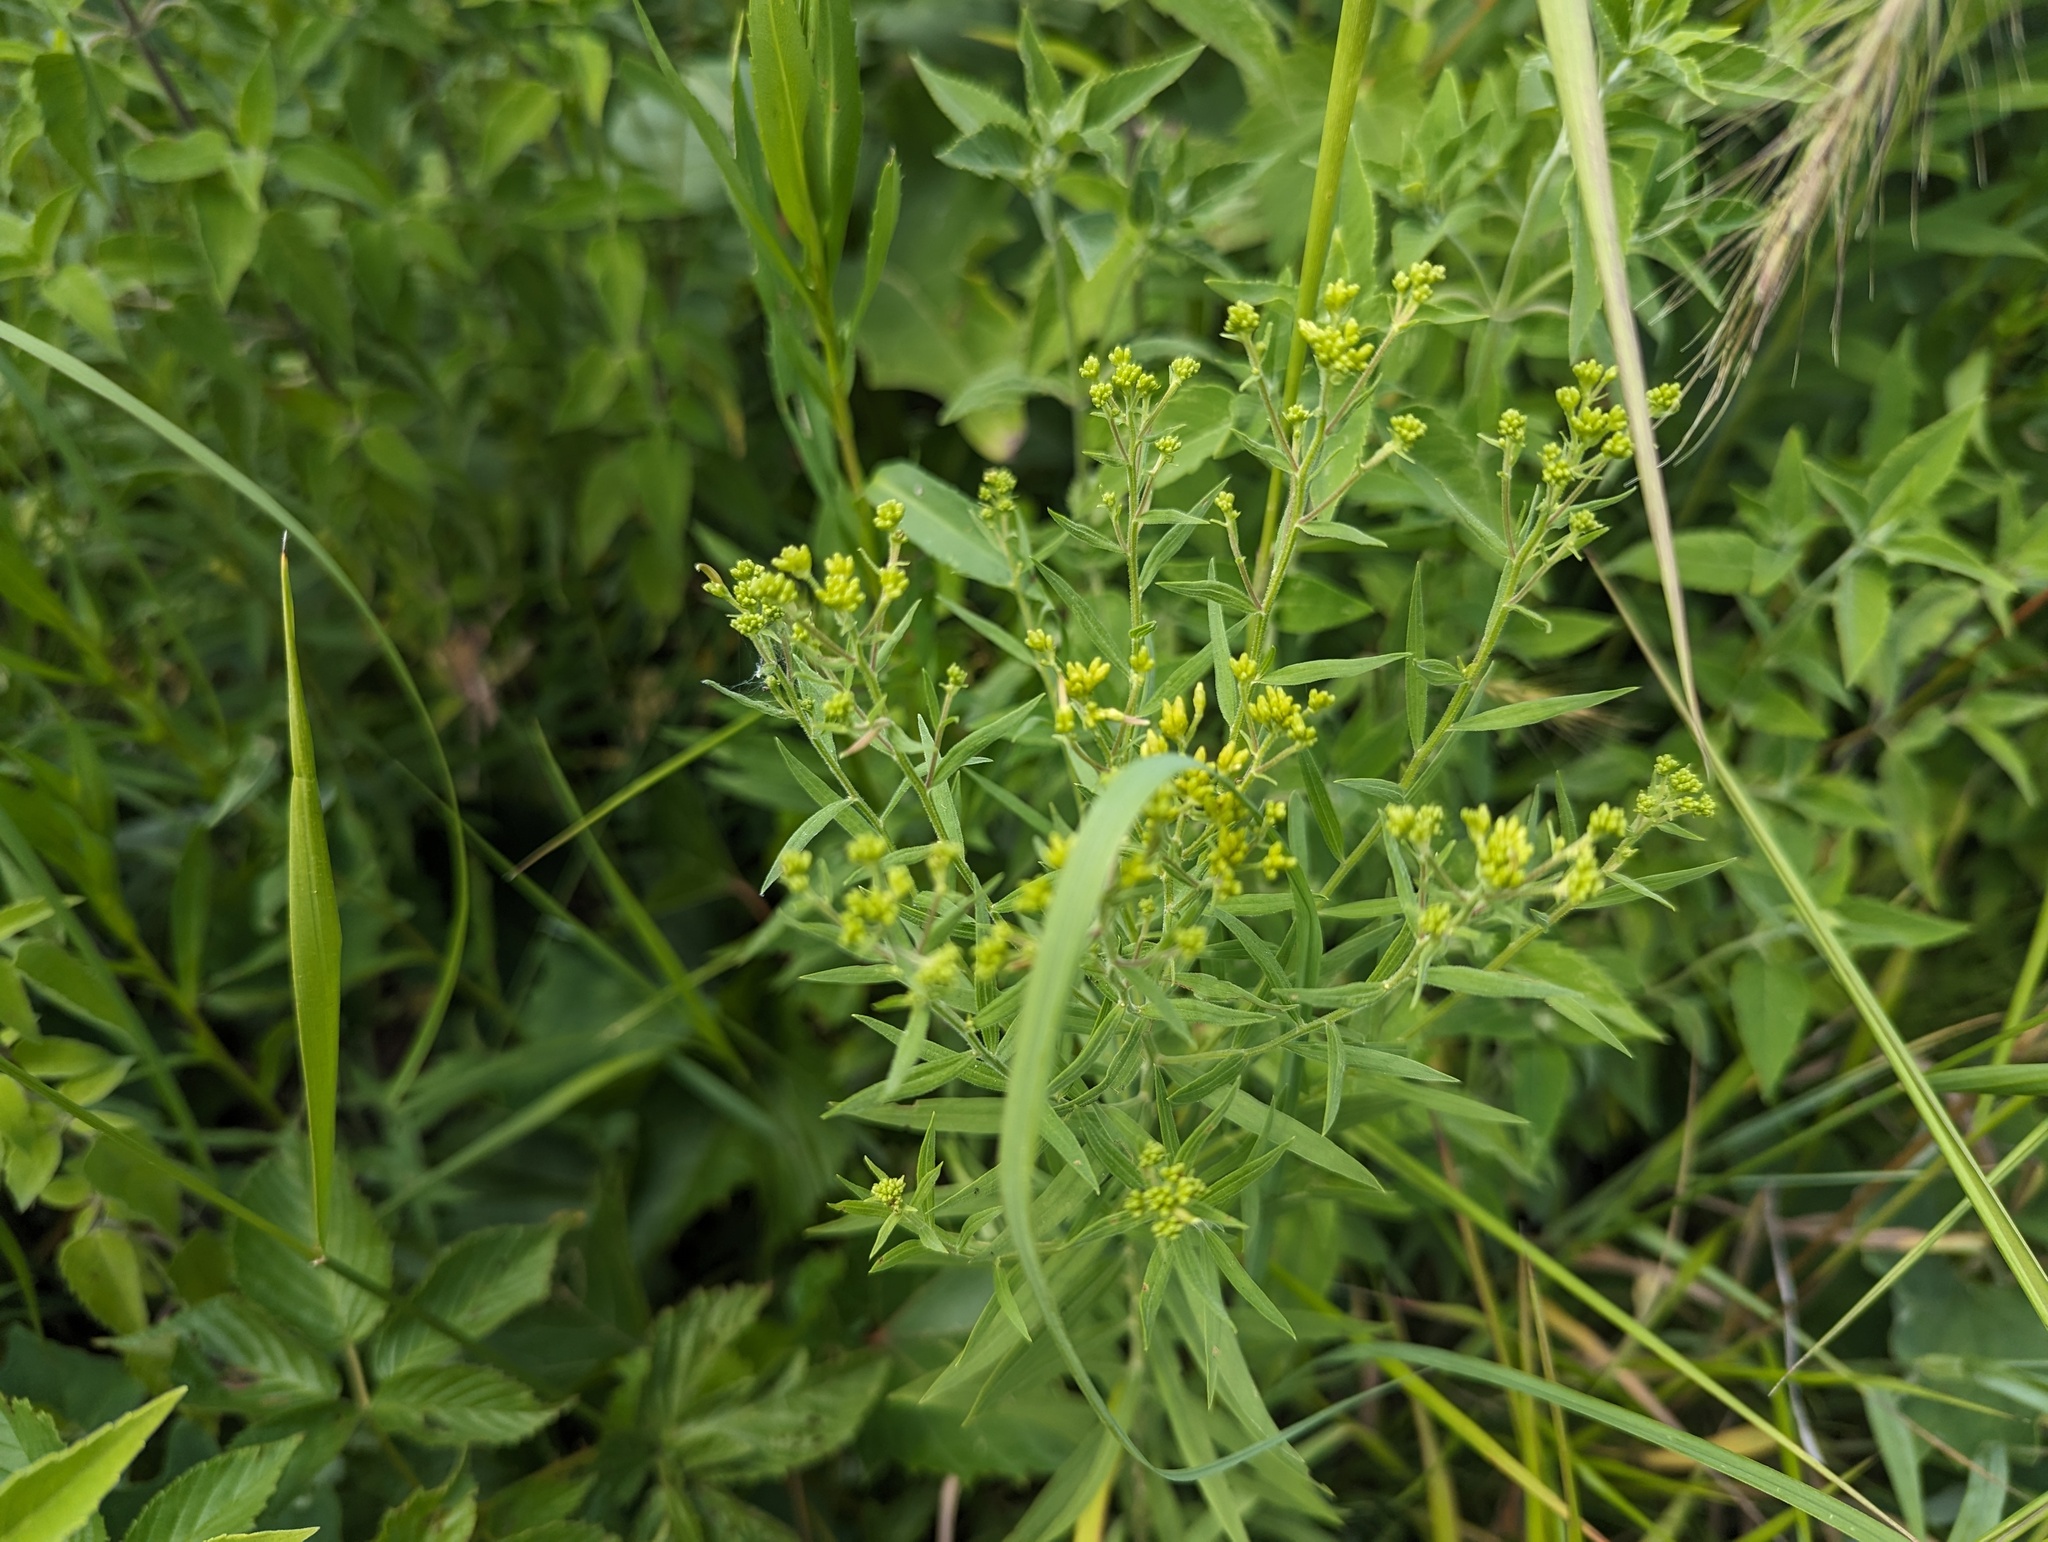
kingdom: Plantae
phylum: Tracheophyta
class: Magnoliopsida
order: Asterales
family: Asteraceae
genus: Euthamia
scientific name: Euthamia graminifolia
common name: Common goldentop
